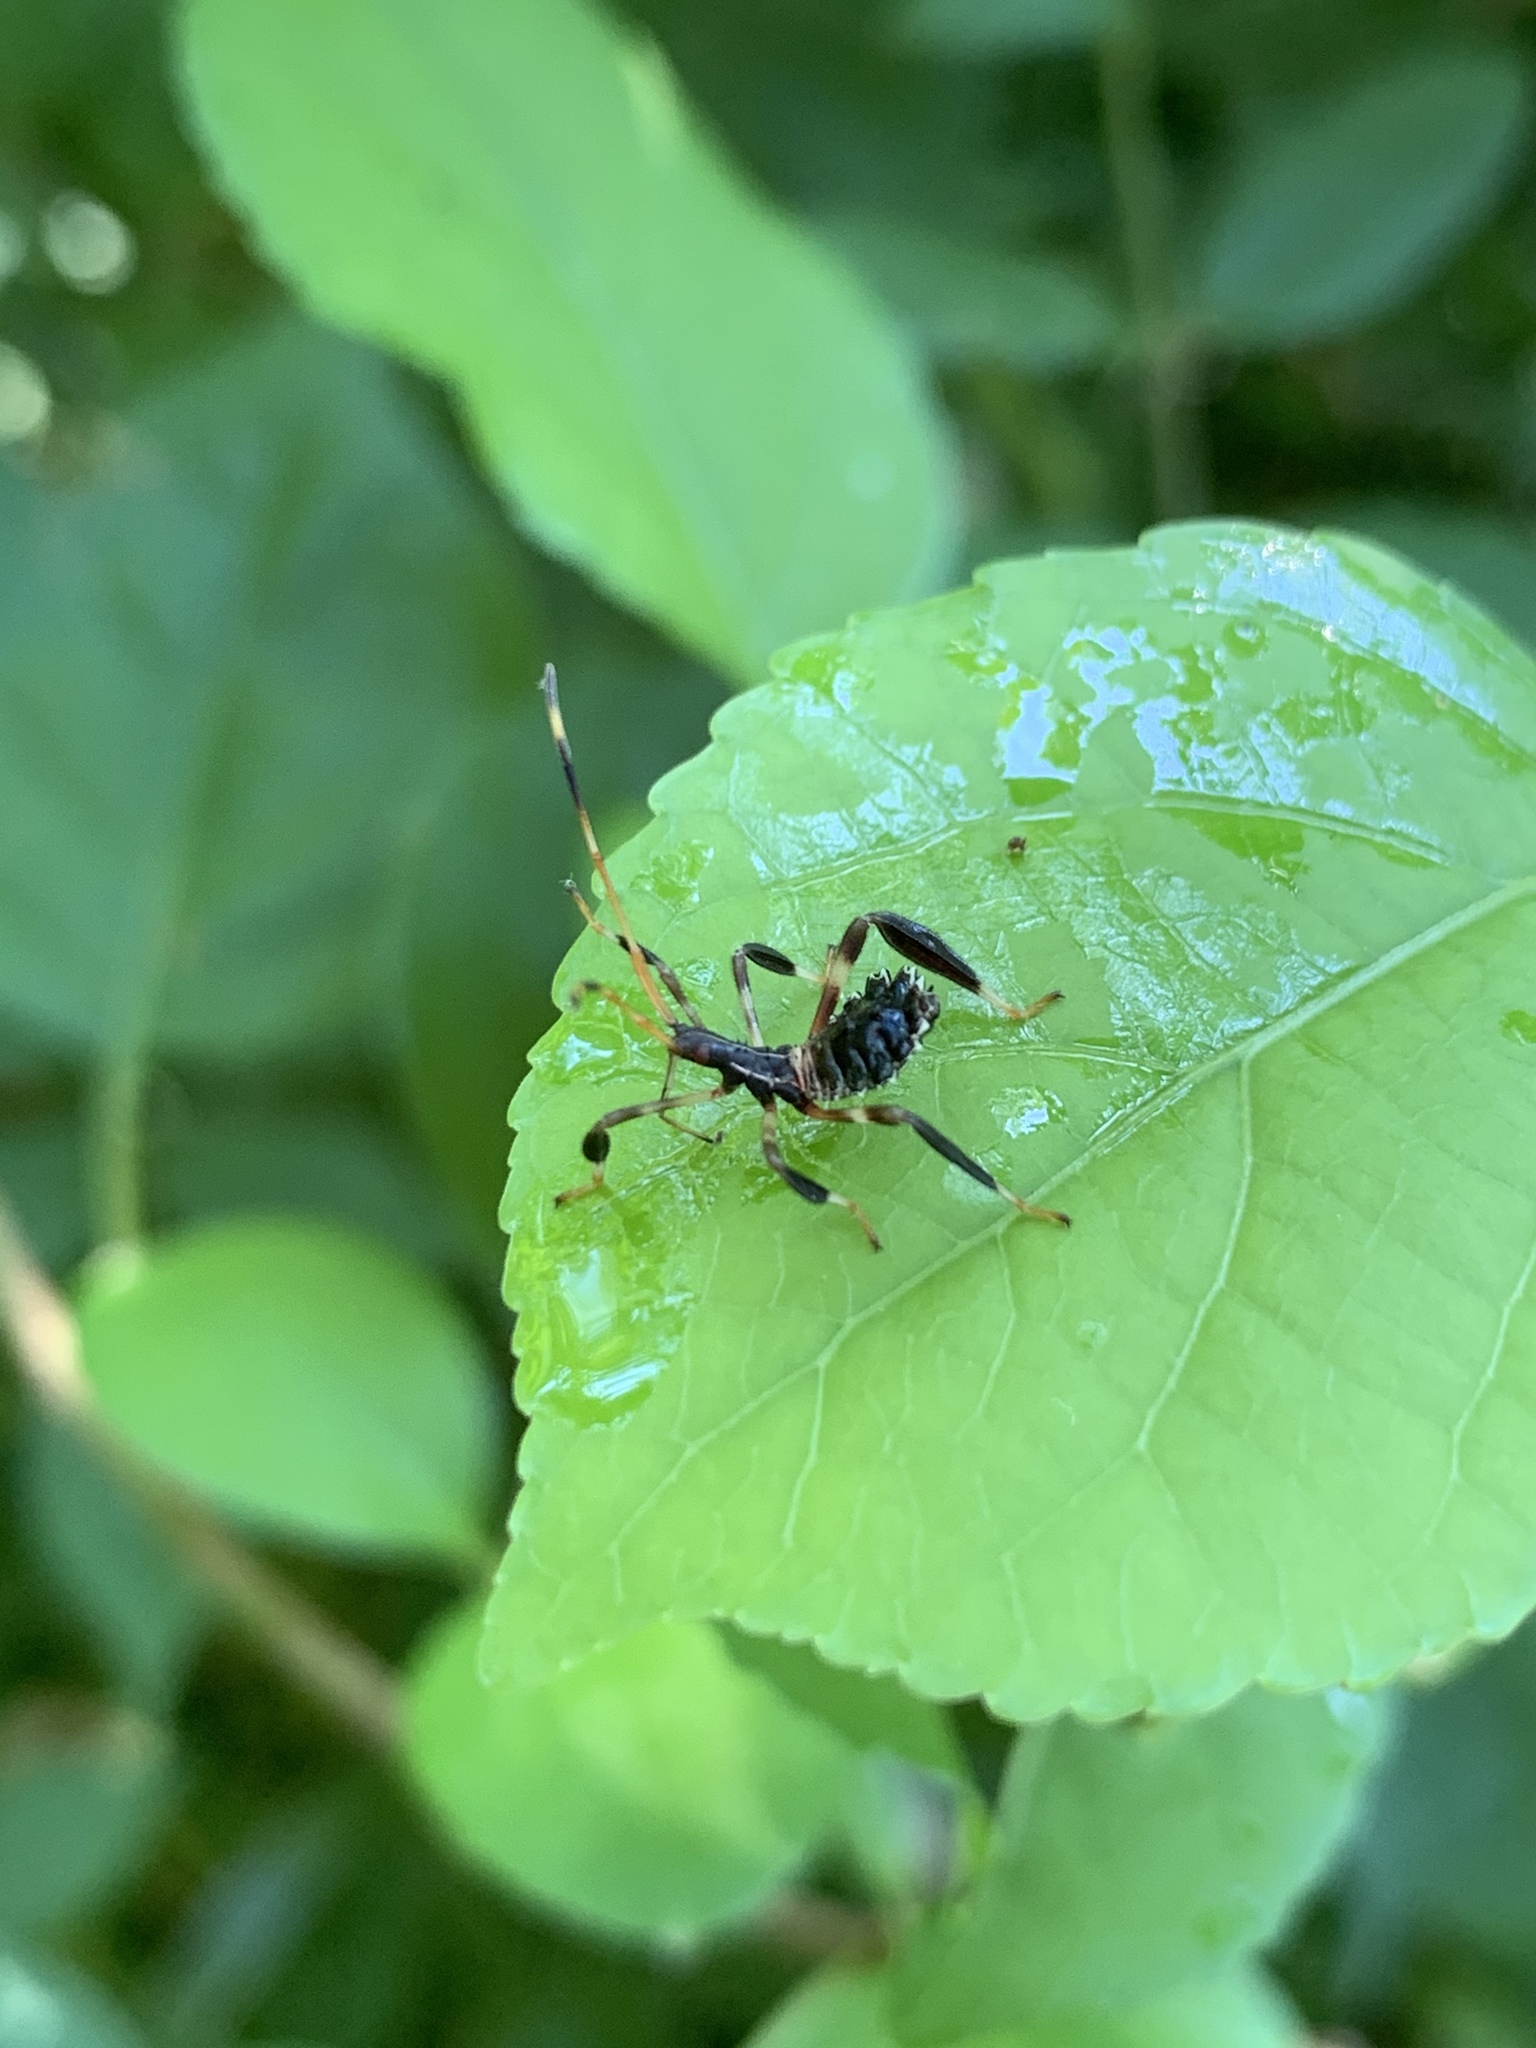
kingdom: Animalia
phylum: Arthropoda
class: Insecta
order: Hemiptera
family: Coreidae
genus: Acanthocephala
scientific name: Acanthocephala terminalis
